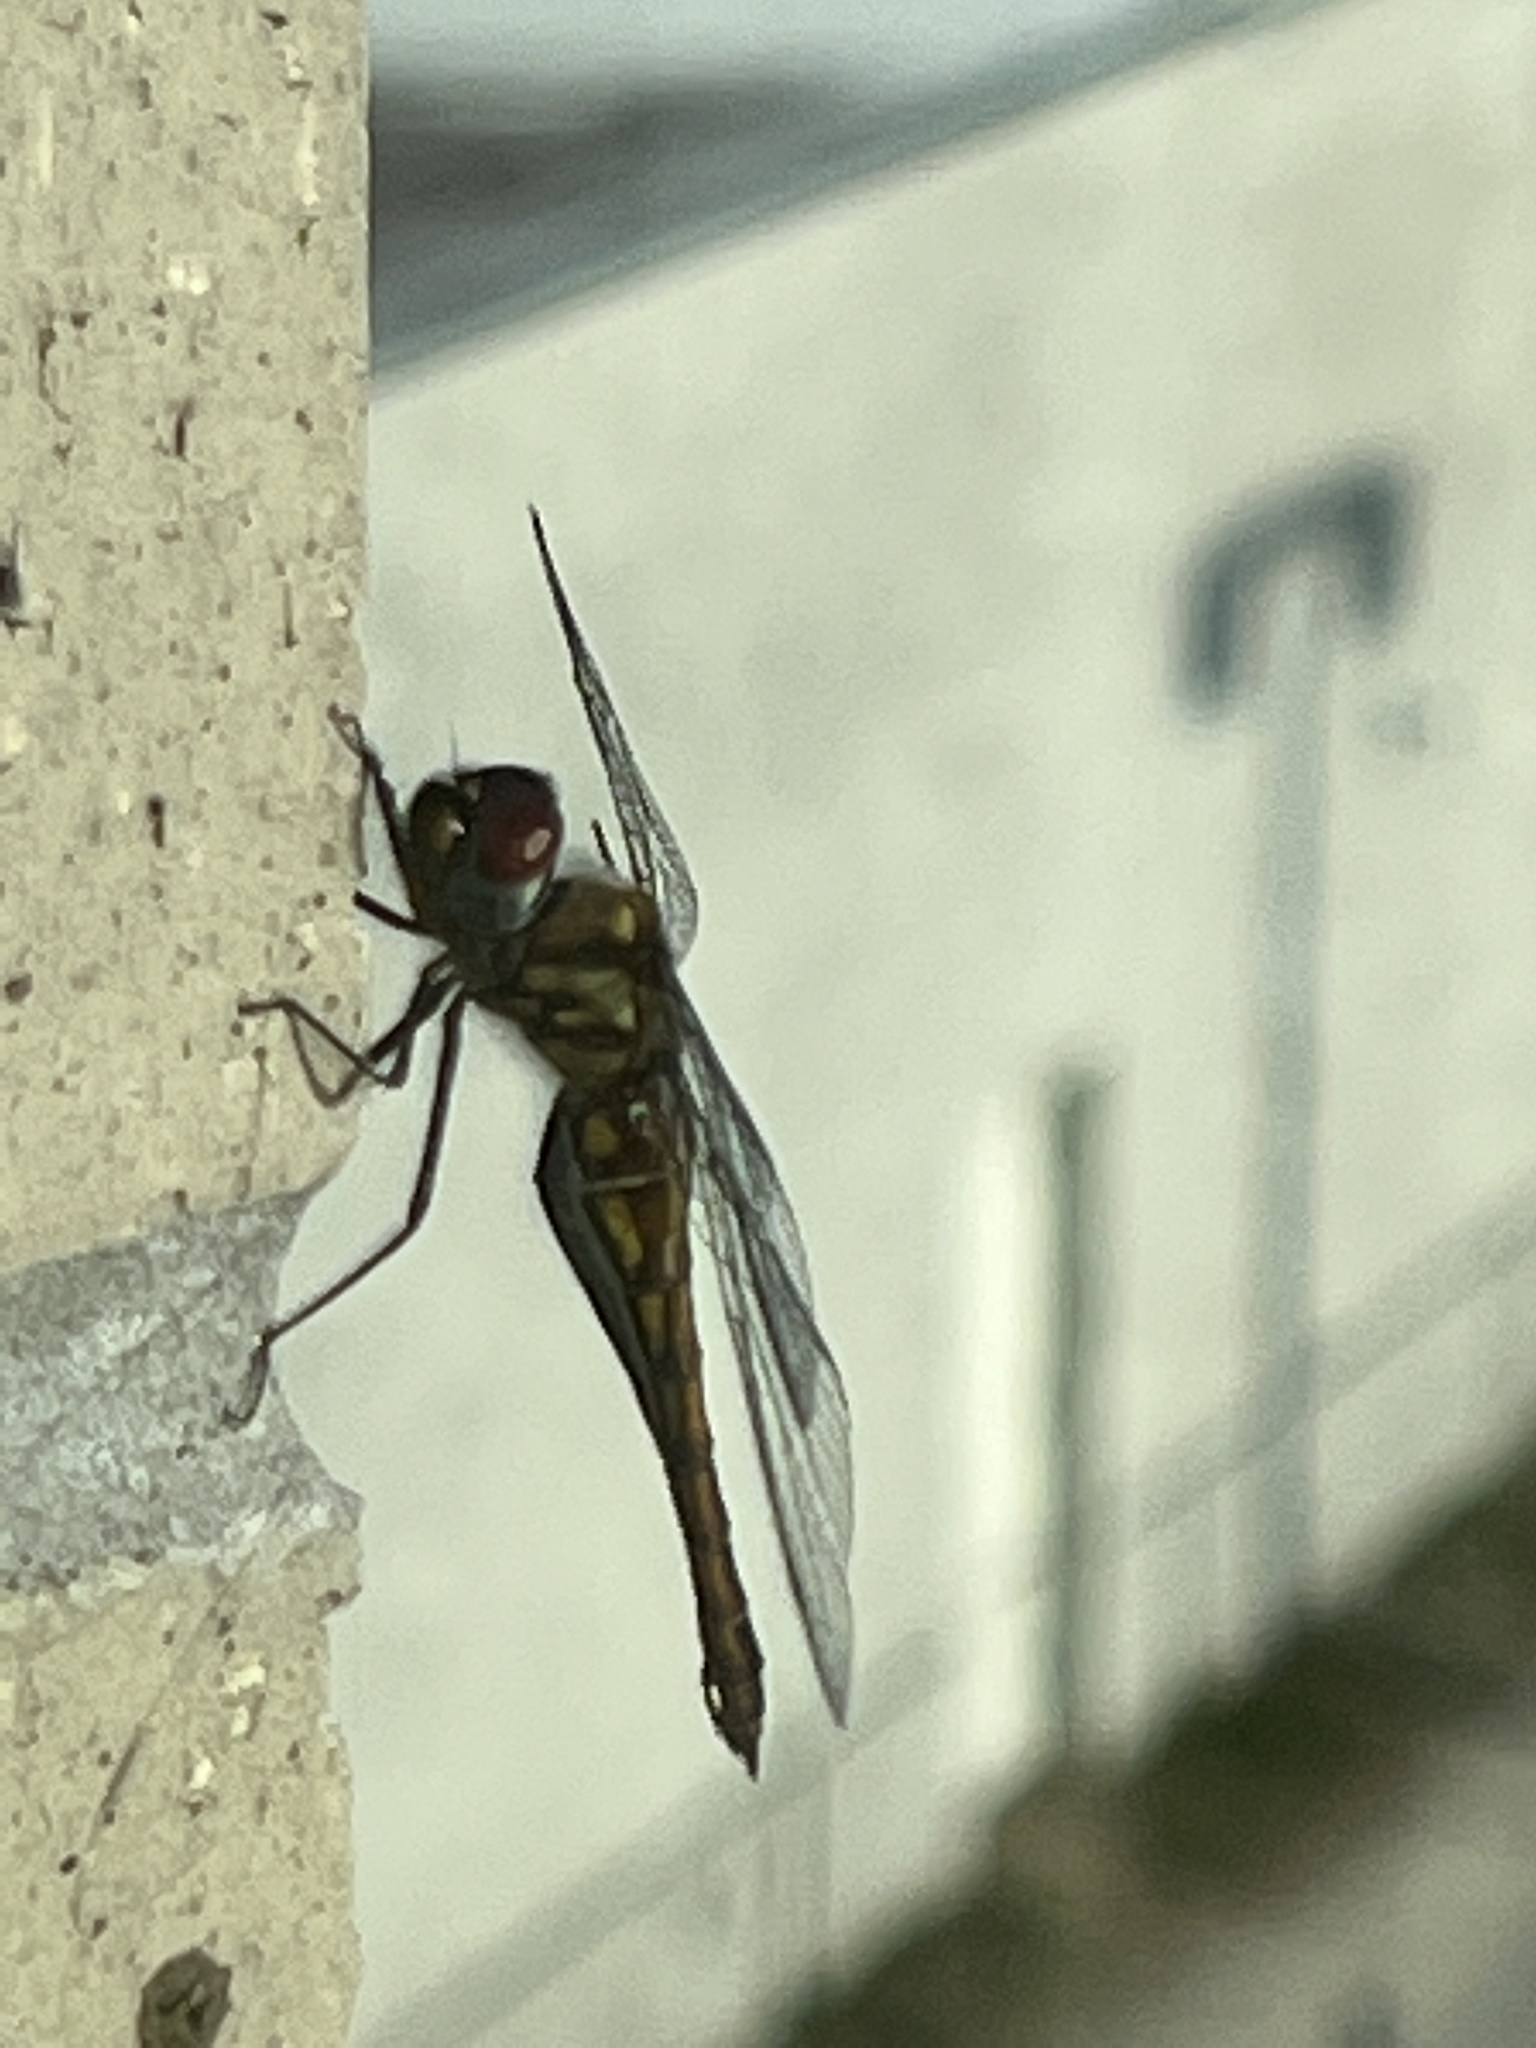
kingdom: Animalia
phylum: Arthropoda
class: Insecta
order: Odonata
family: Corduliidae
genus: Epitheca
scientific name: Epitheca sepia
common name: Sepia baskettail
